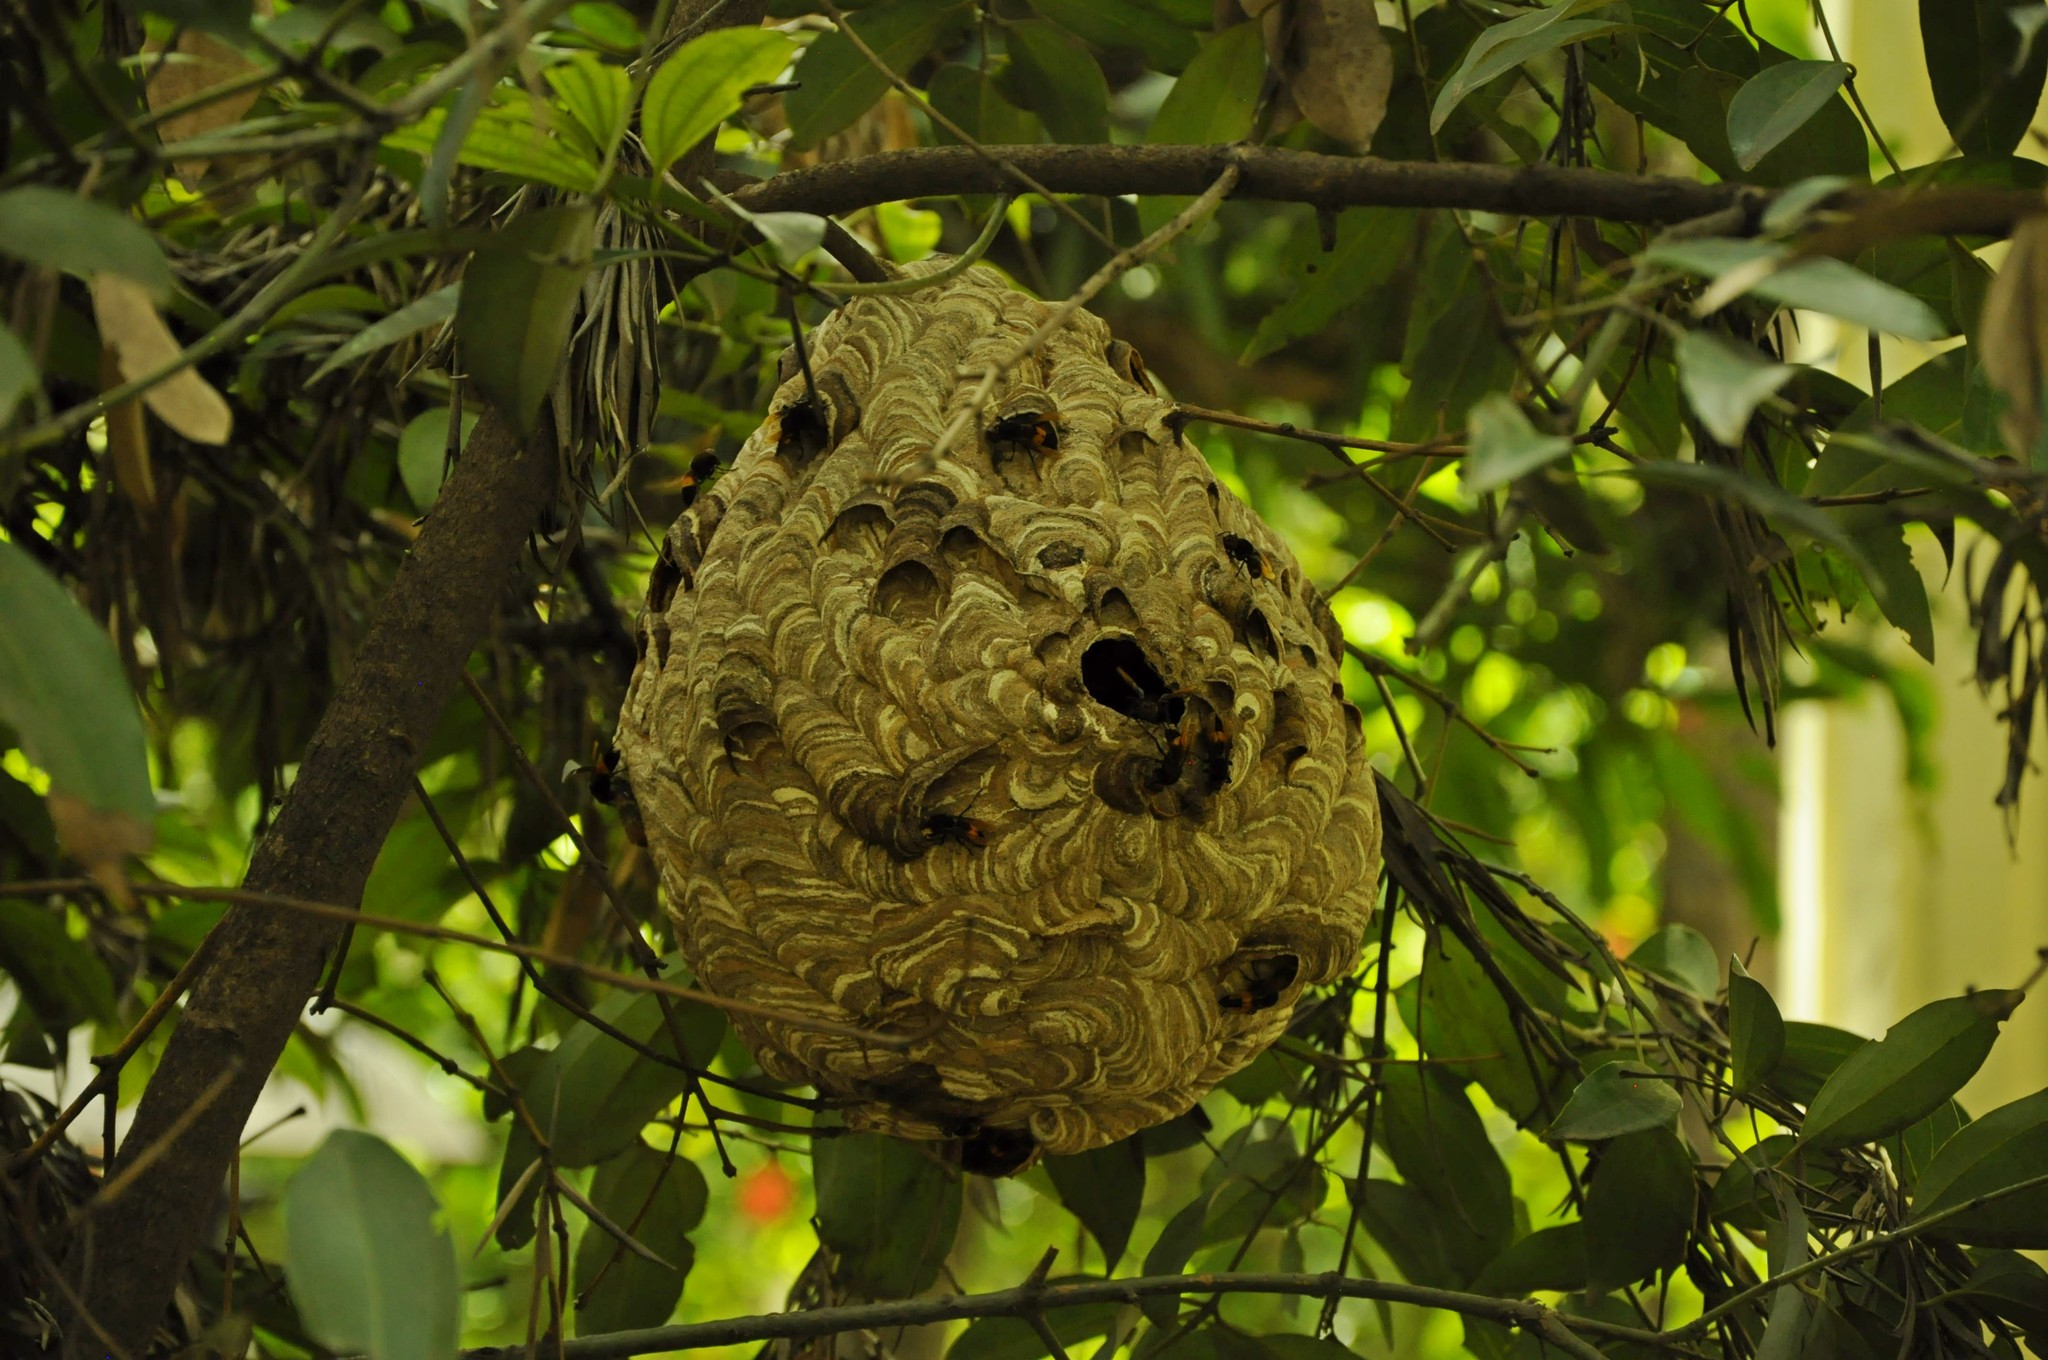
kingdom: Animalia
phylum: Arthropoda
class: Insecta
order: Hymenoptera
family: Vespidae
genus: Vespa
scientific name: Vespa affinis
